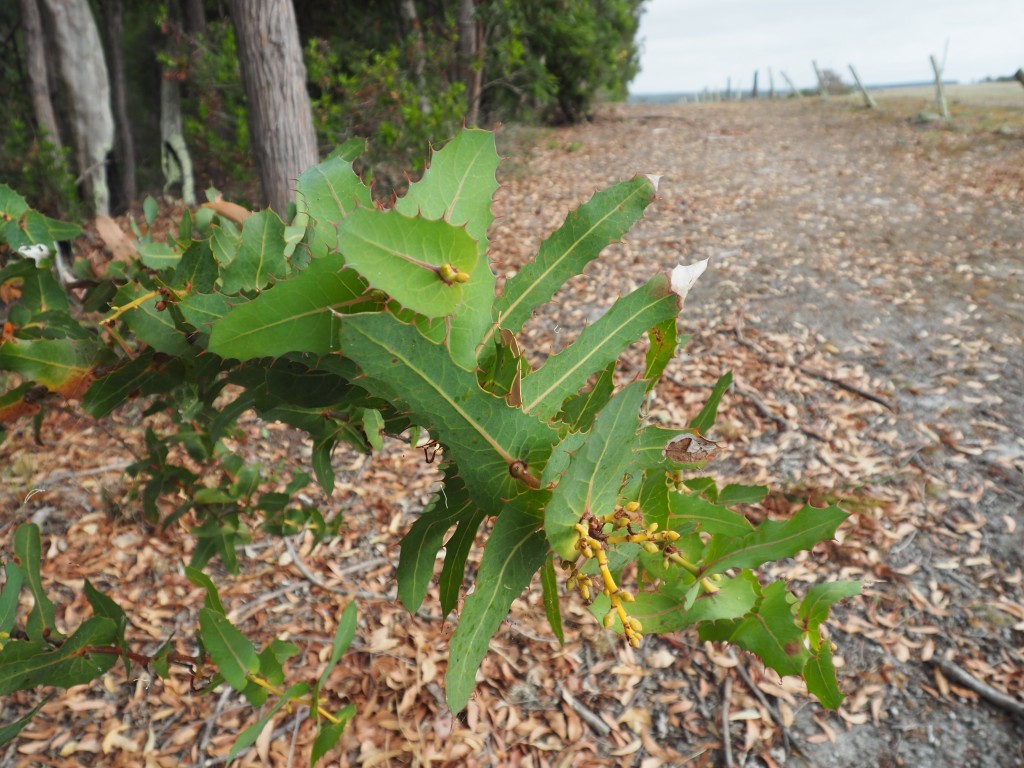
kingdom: Plantae
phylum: Tracheophyta
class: Magnoliopsida
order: Proteales
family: Proteaceae
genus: Hakea
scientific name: Hakea amplexicaulis
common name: Prickly hakea
